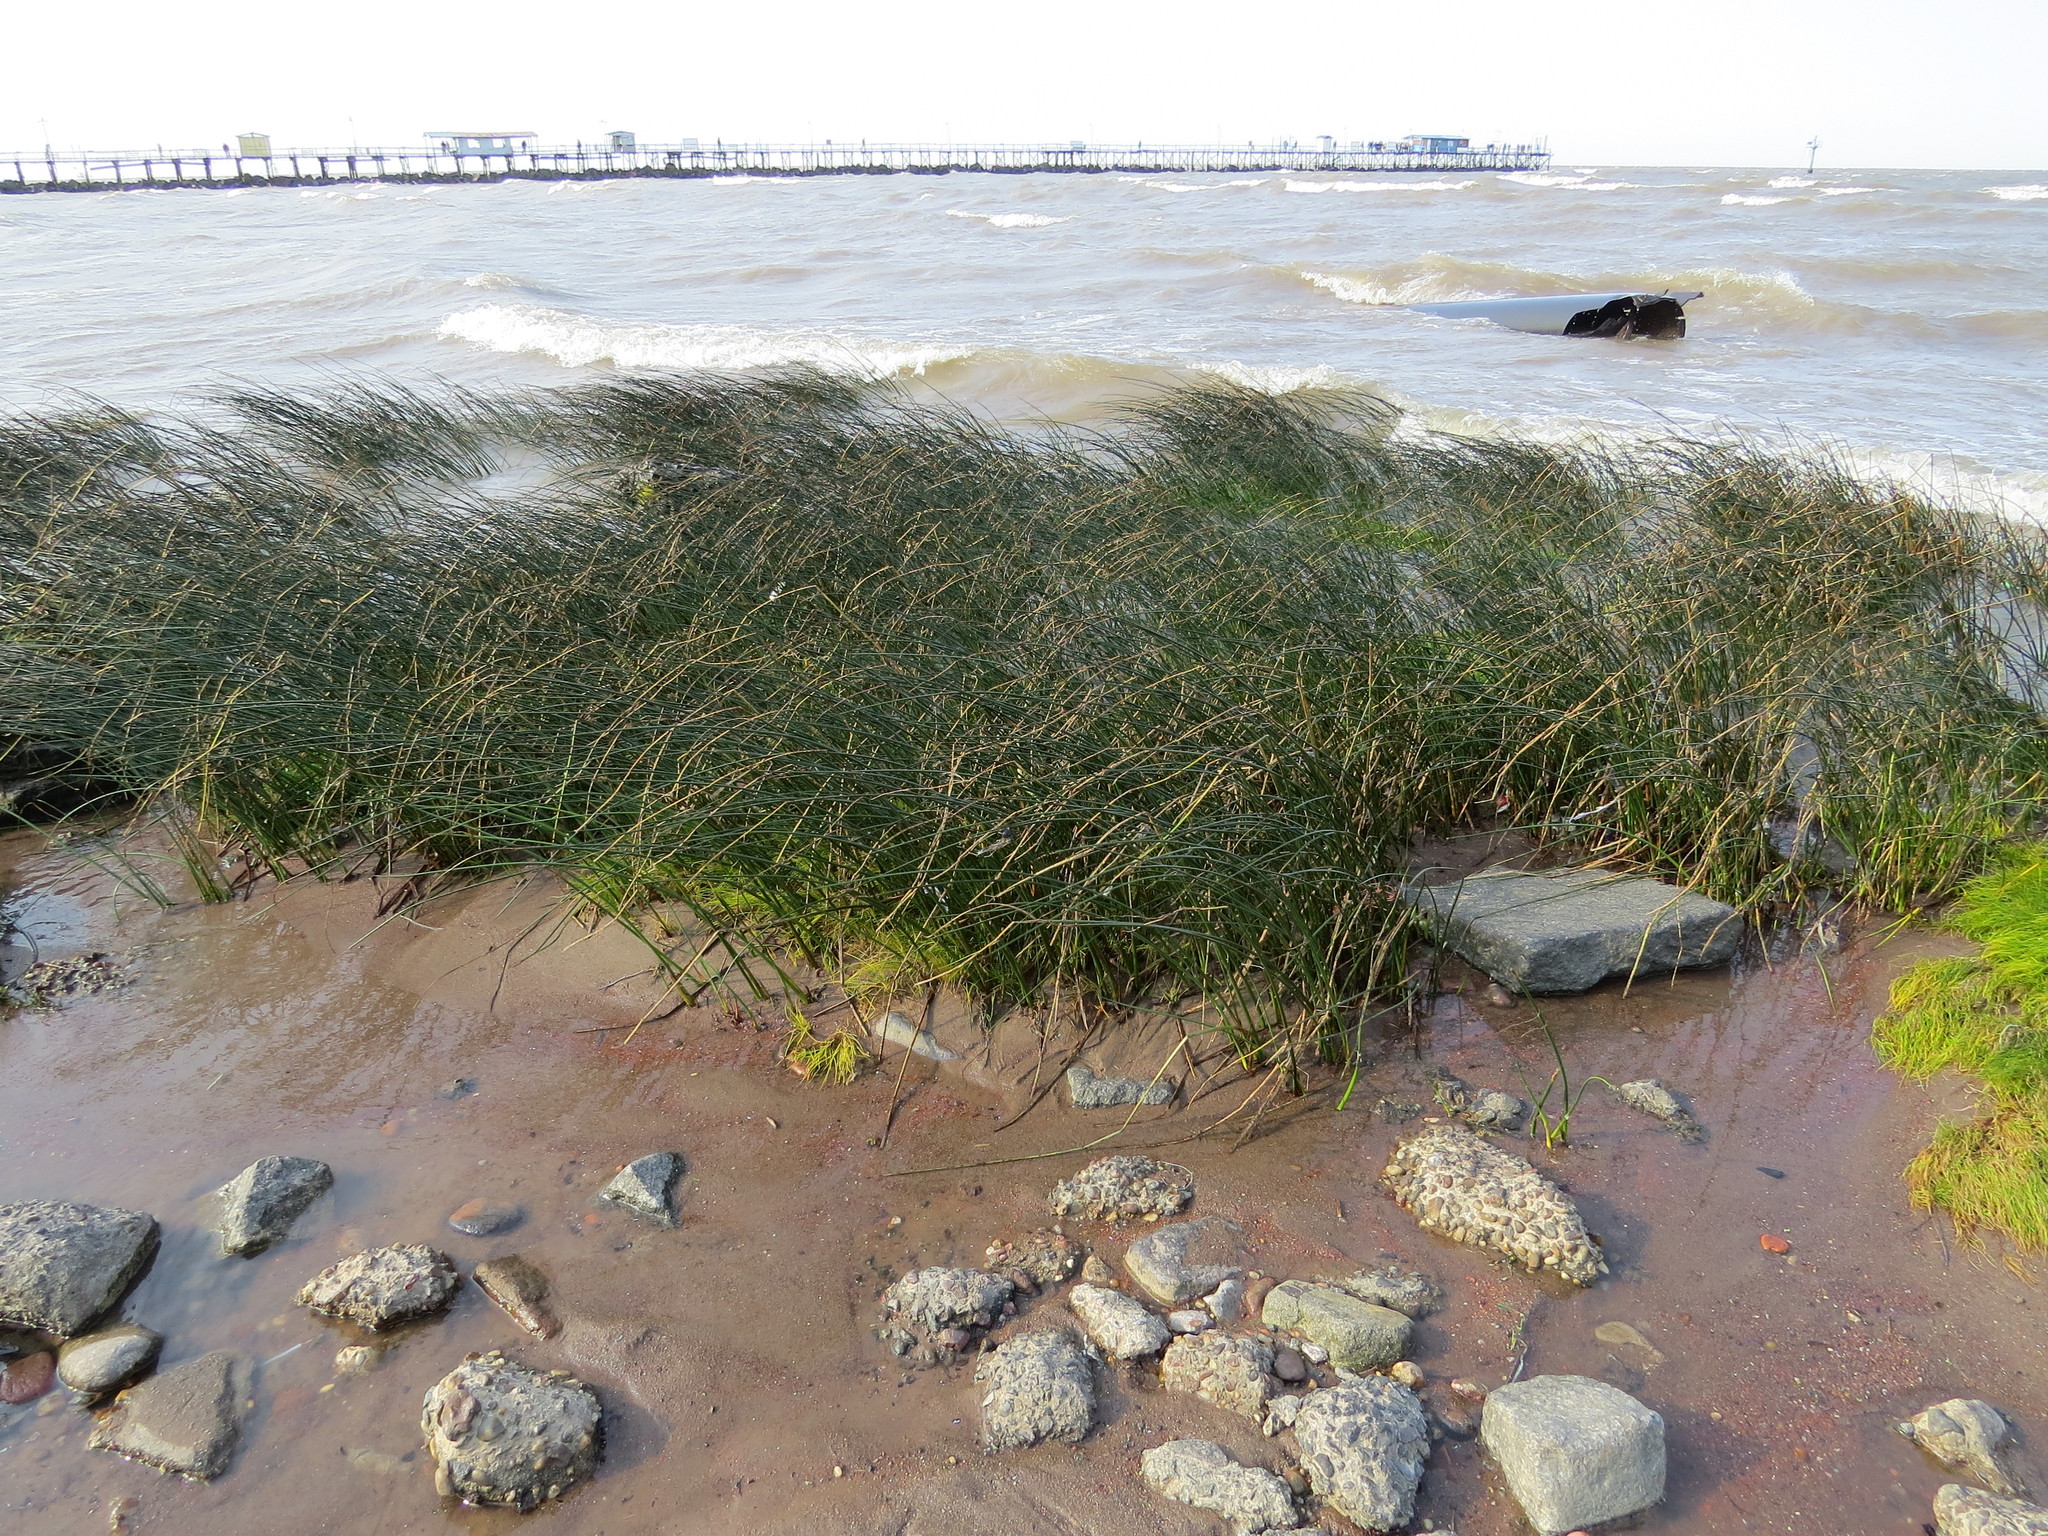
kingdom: Plantae
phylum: Tracheophyta
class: Liliopsida
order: Poales
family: Cyperaceae
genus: Schoenoplectus
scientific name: Schoenoplectus californicus
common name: California bulrush
